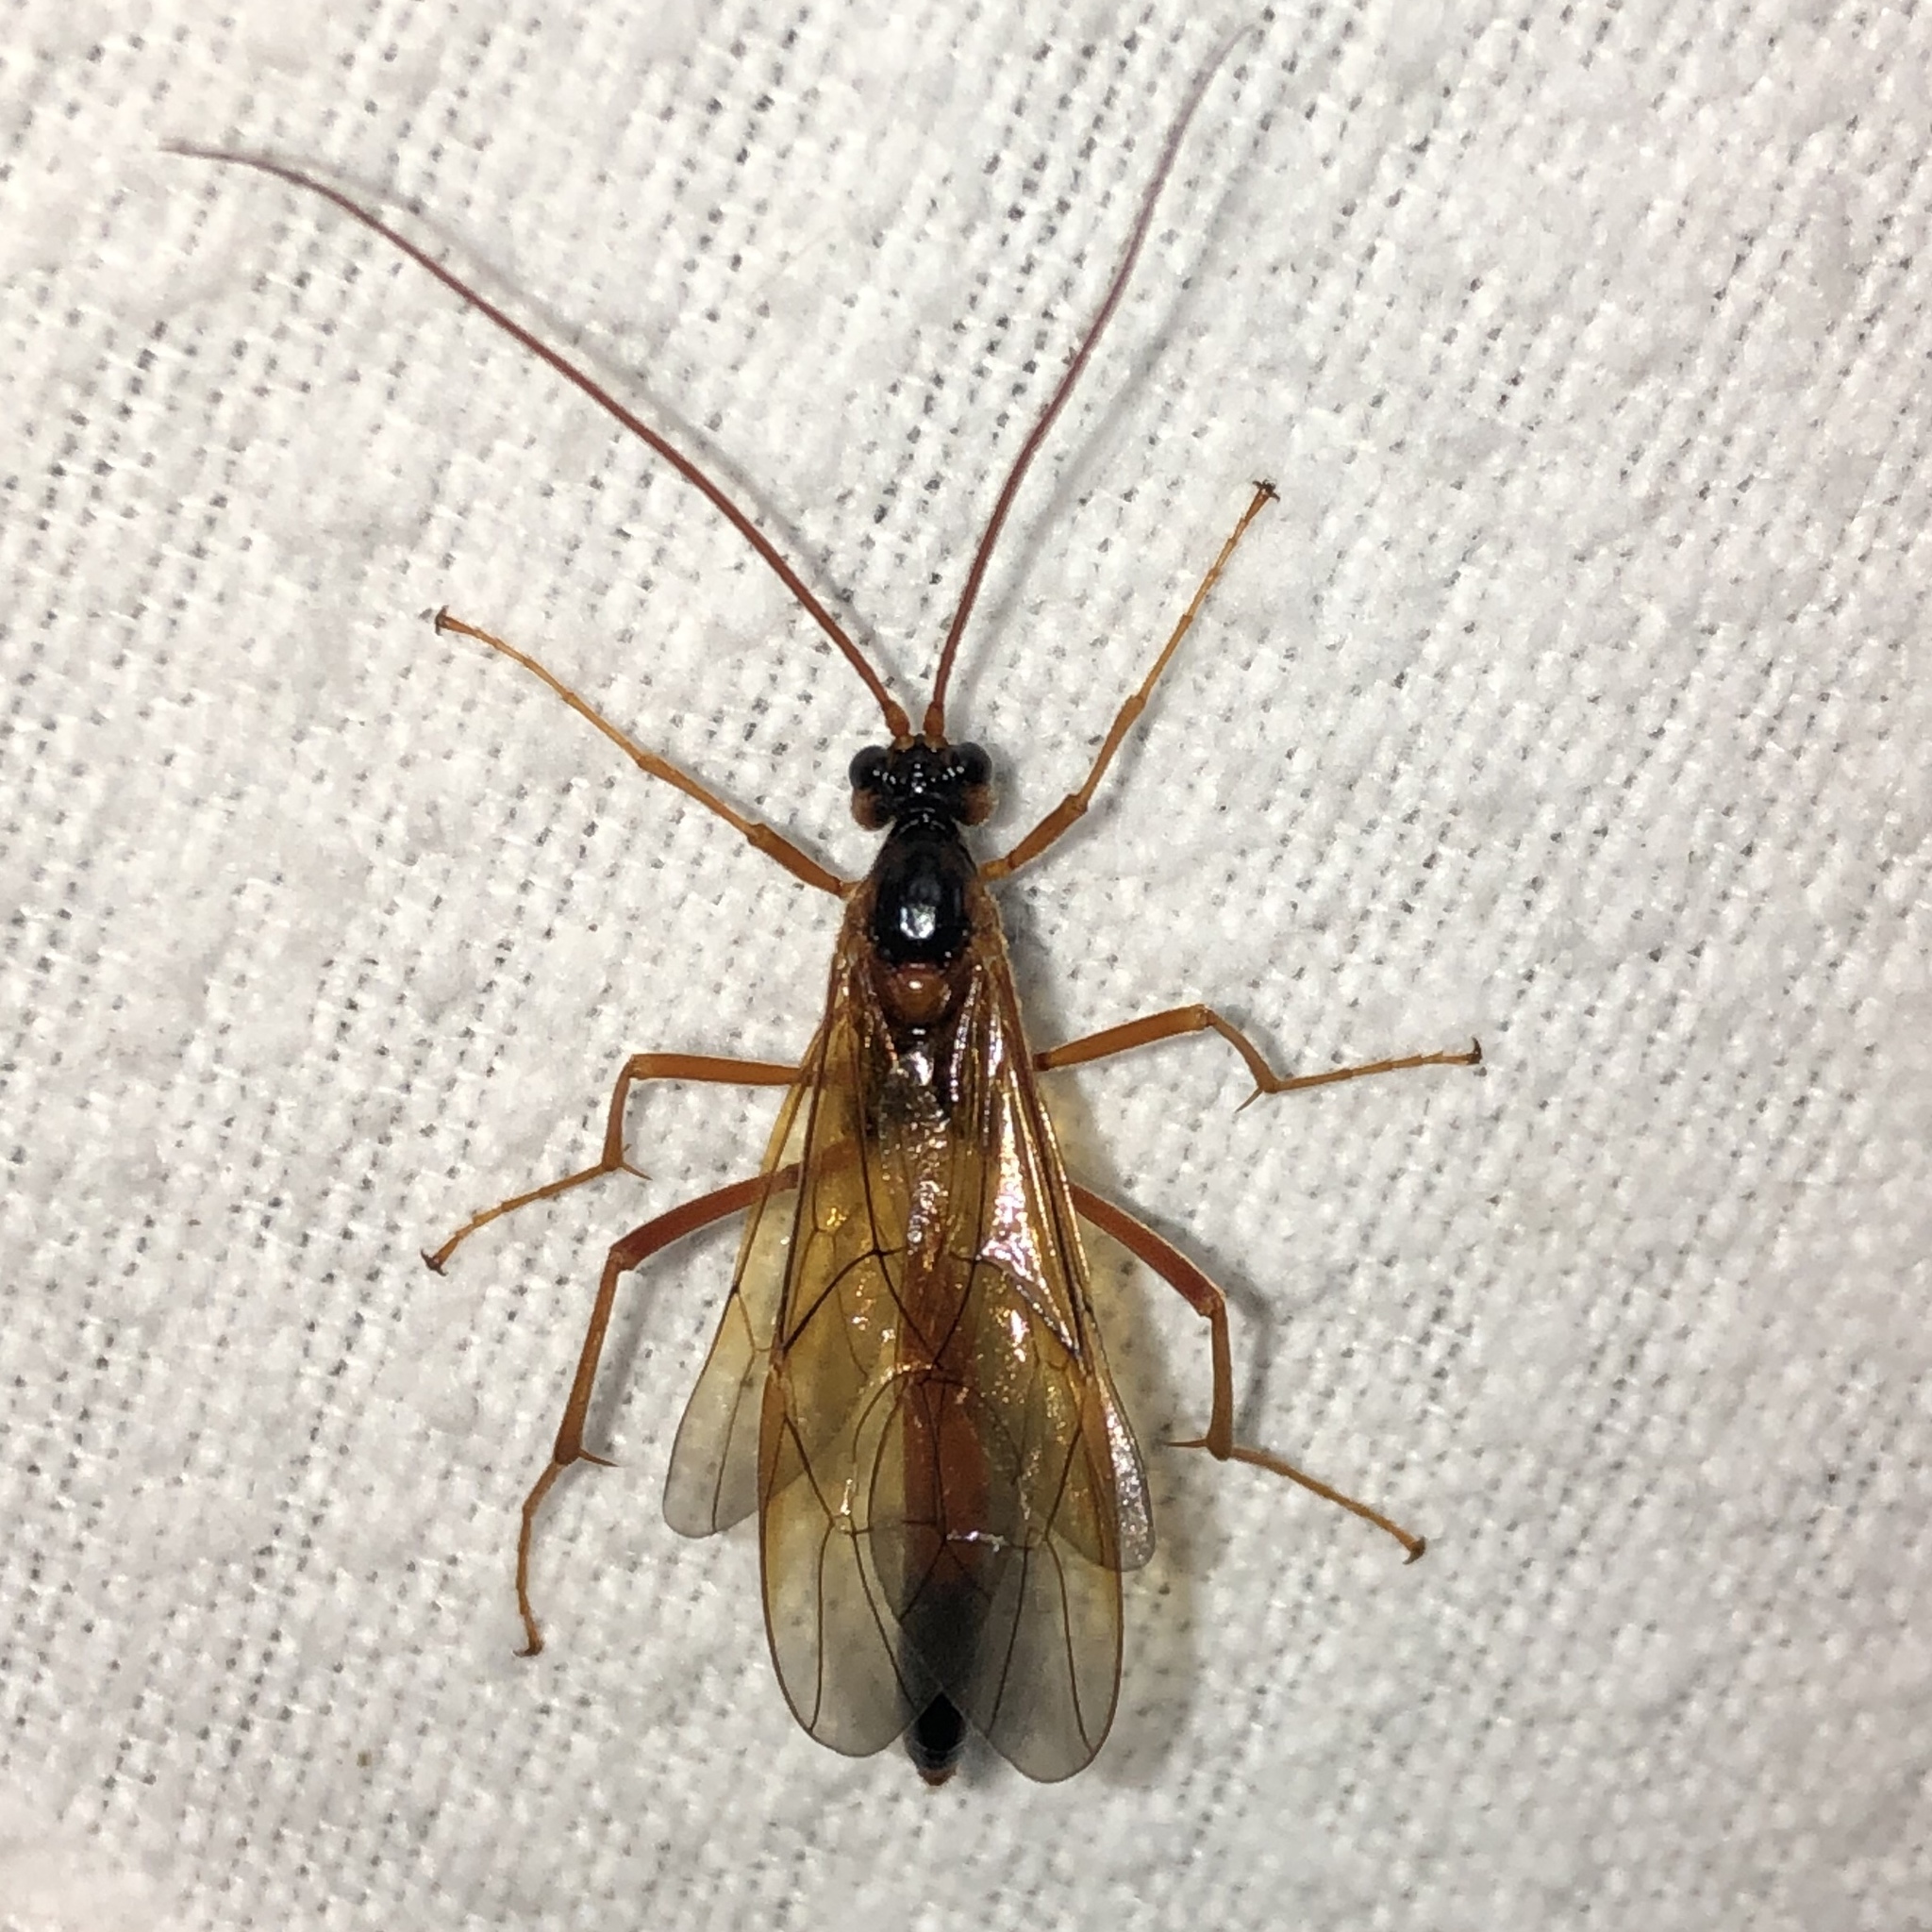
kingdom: Animalia
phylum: Arthropoda
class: Insecta
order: Hymenoptera
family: Ichneumonidae
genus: Opheltes
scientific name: Opheltes glaucopterus
